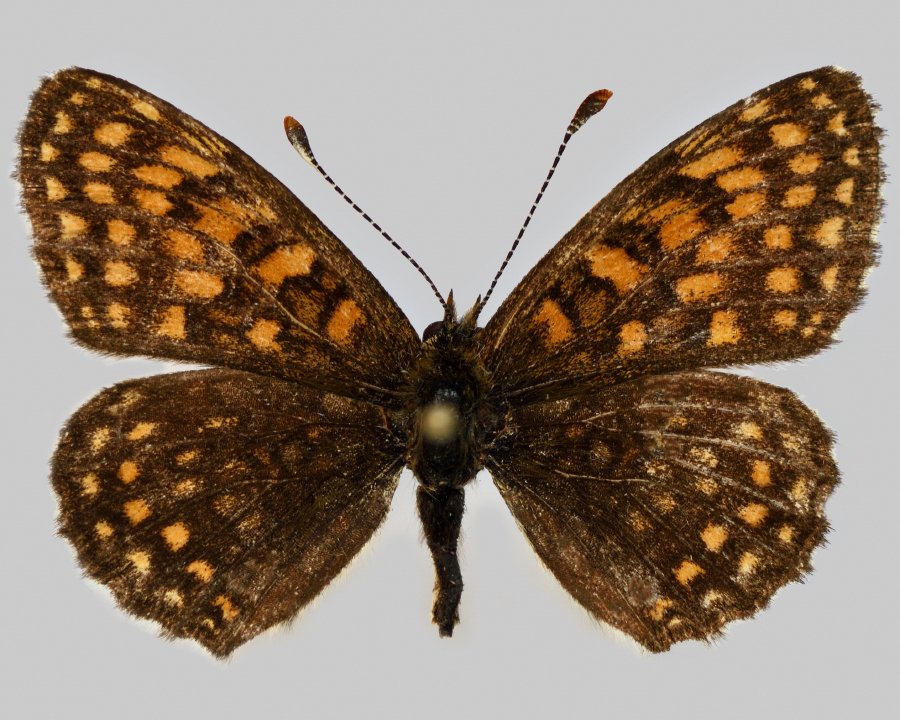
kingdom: Animalia
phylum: Arthropoda
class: Insecta
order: Lepidoptera
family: Nymphalidae
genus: Melitaea
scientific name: Melitaea diamina
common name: False heath fritillary
